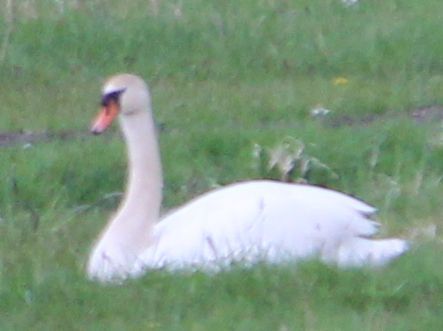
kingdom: Animalia
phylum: Chordata
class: Aves
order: Anseriformes
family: Anatidae
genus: Cygnus
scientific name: Cygnus olor
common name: Mute swan
